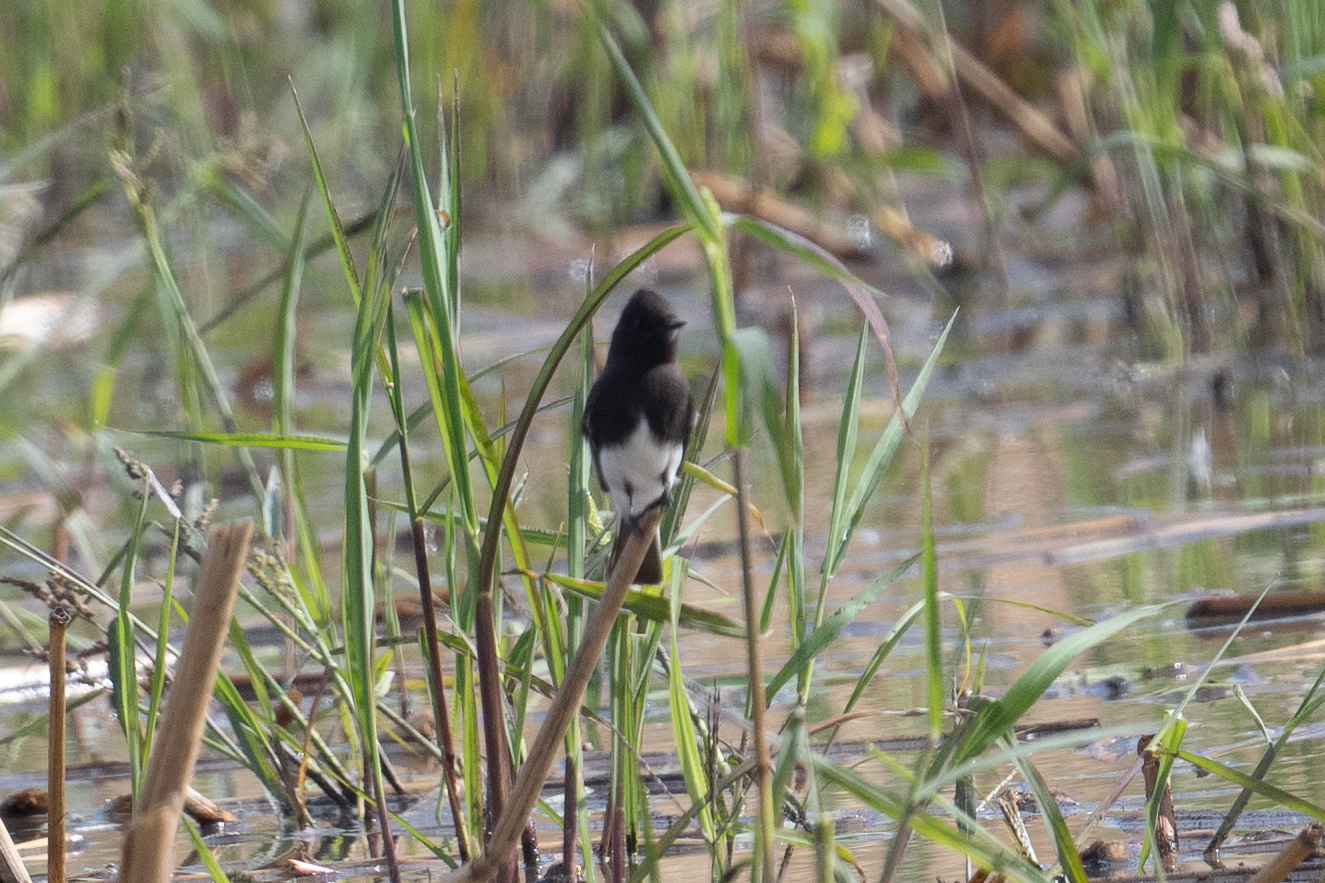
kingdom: Animalia
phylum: Chordata
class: Aves
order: Passeriformes
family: Tyrannidae
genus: Sayornis
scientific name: Sayornis nigricans
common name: Black phoebe
